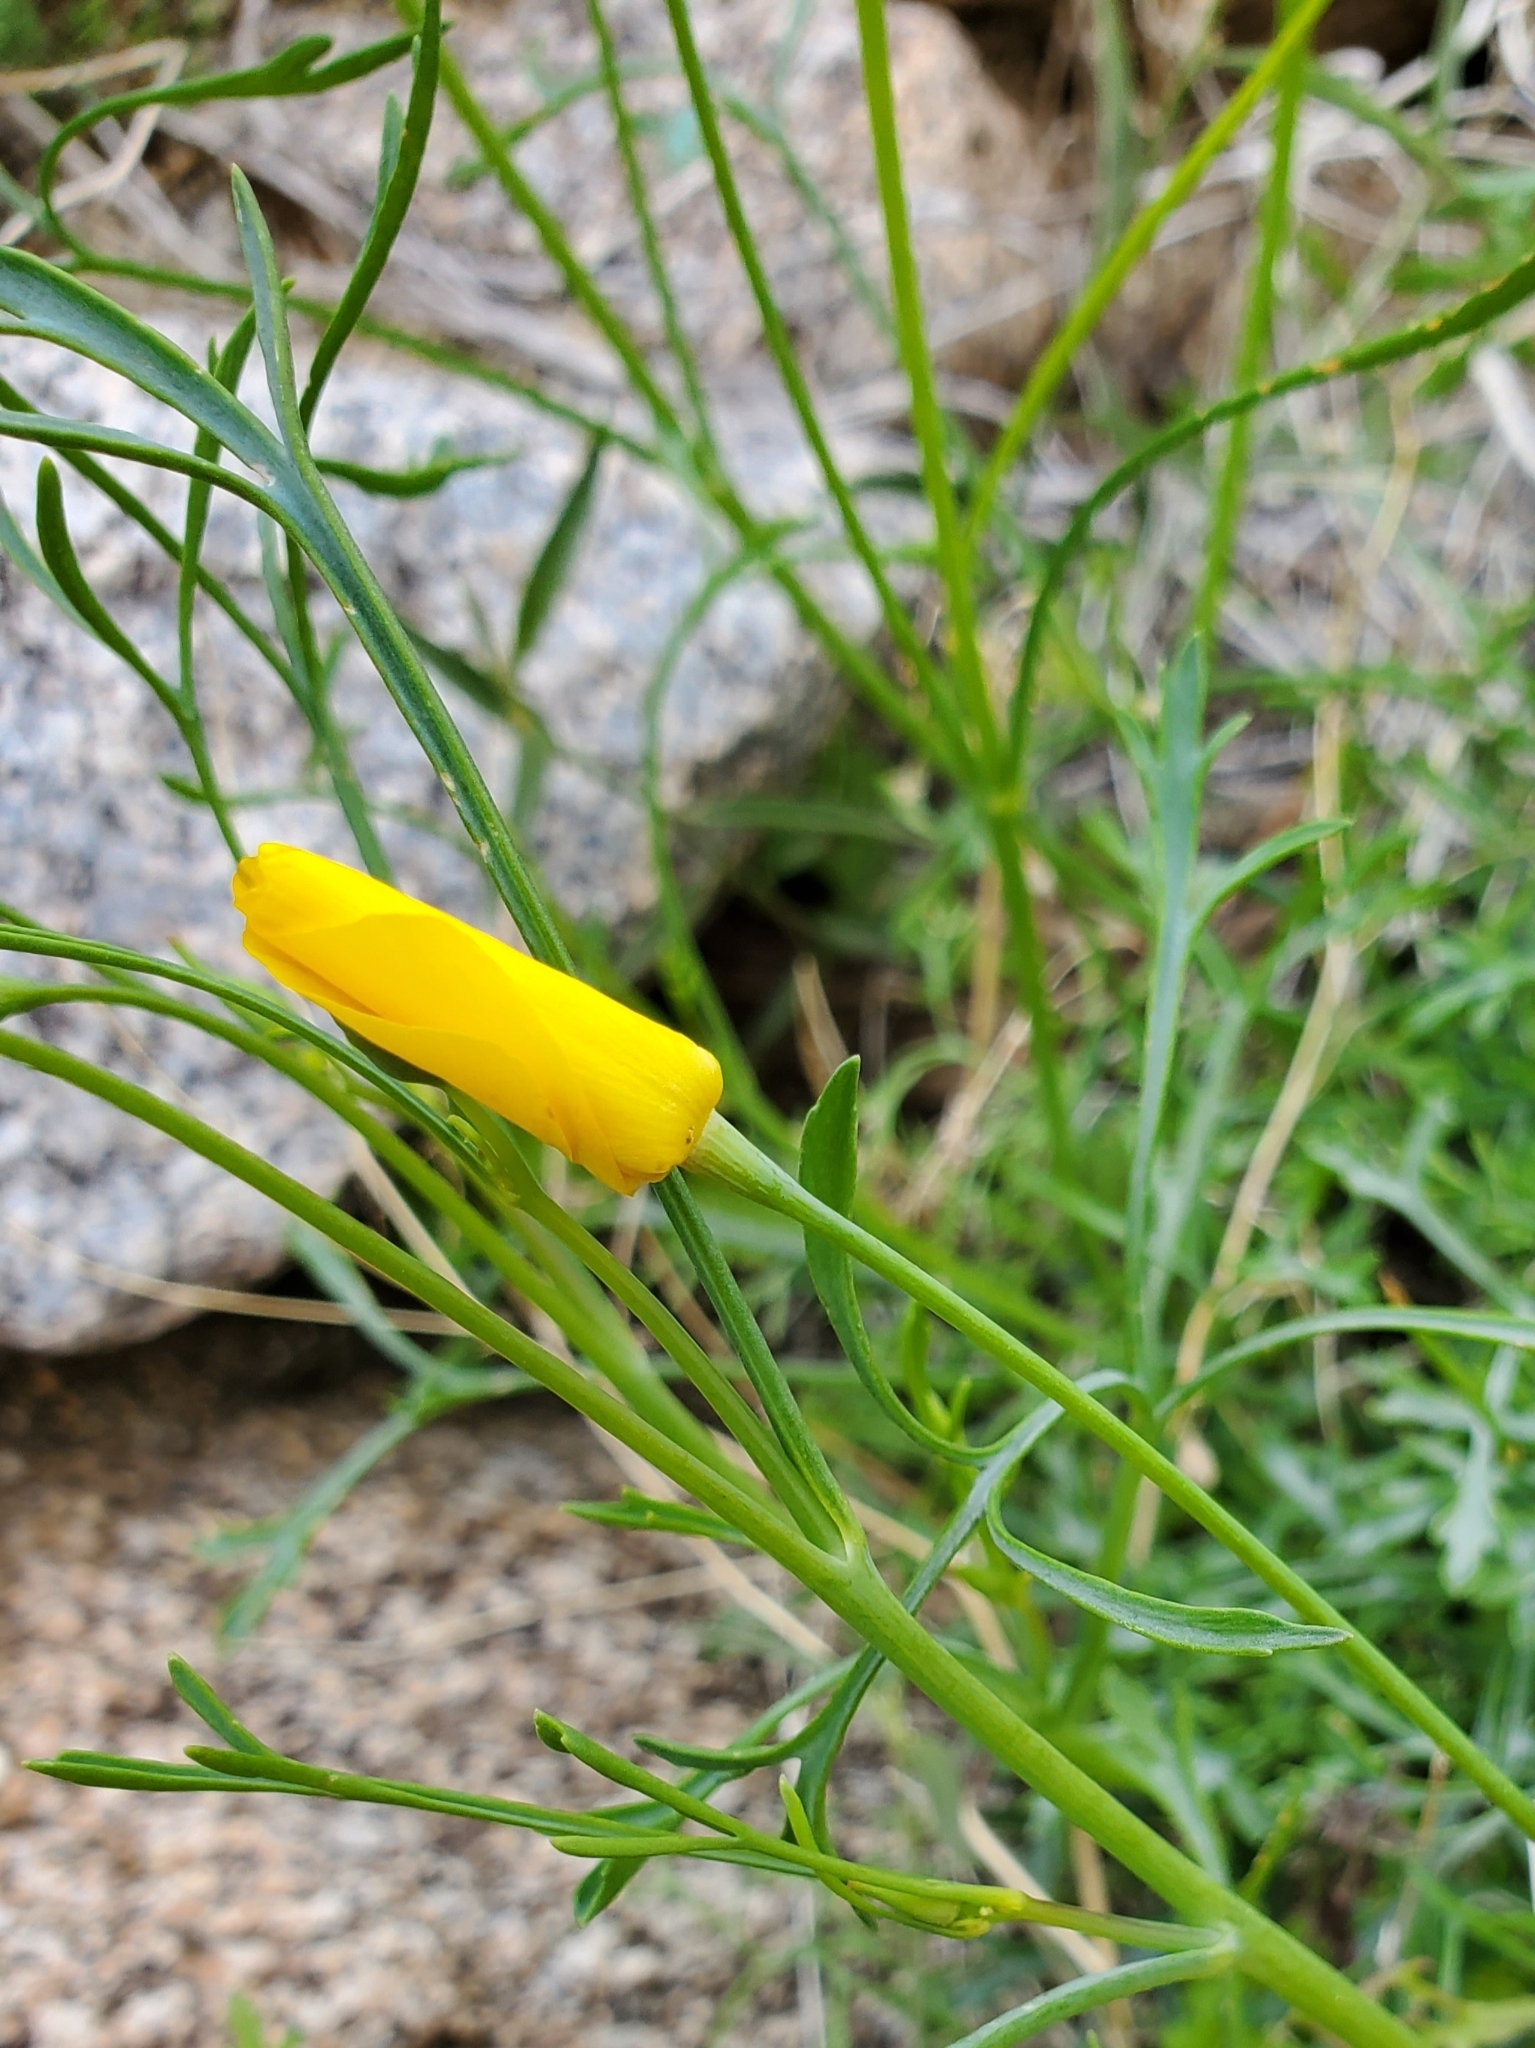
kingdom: Plantae
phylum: Tracheophyta
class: Magnoliopsida
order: Ranunculales
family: Papaveraceae
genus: Eschscholzia
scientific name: Eschscholzia parishii
